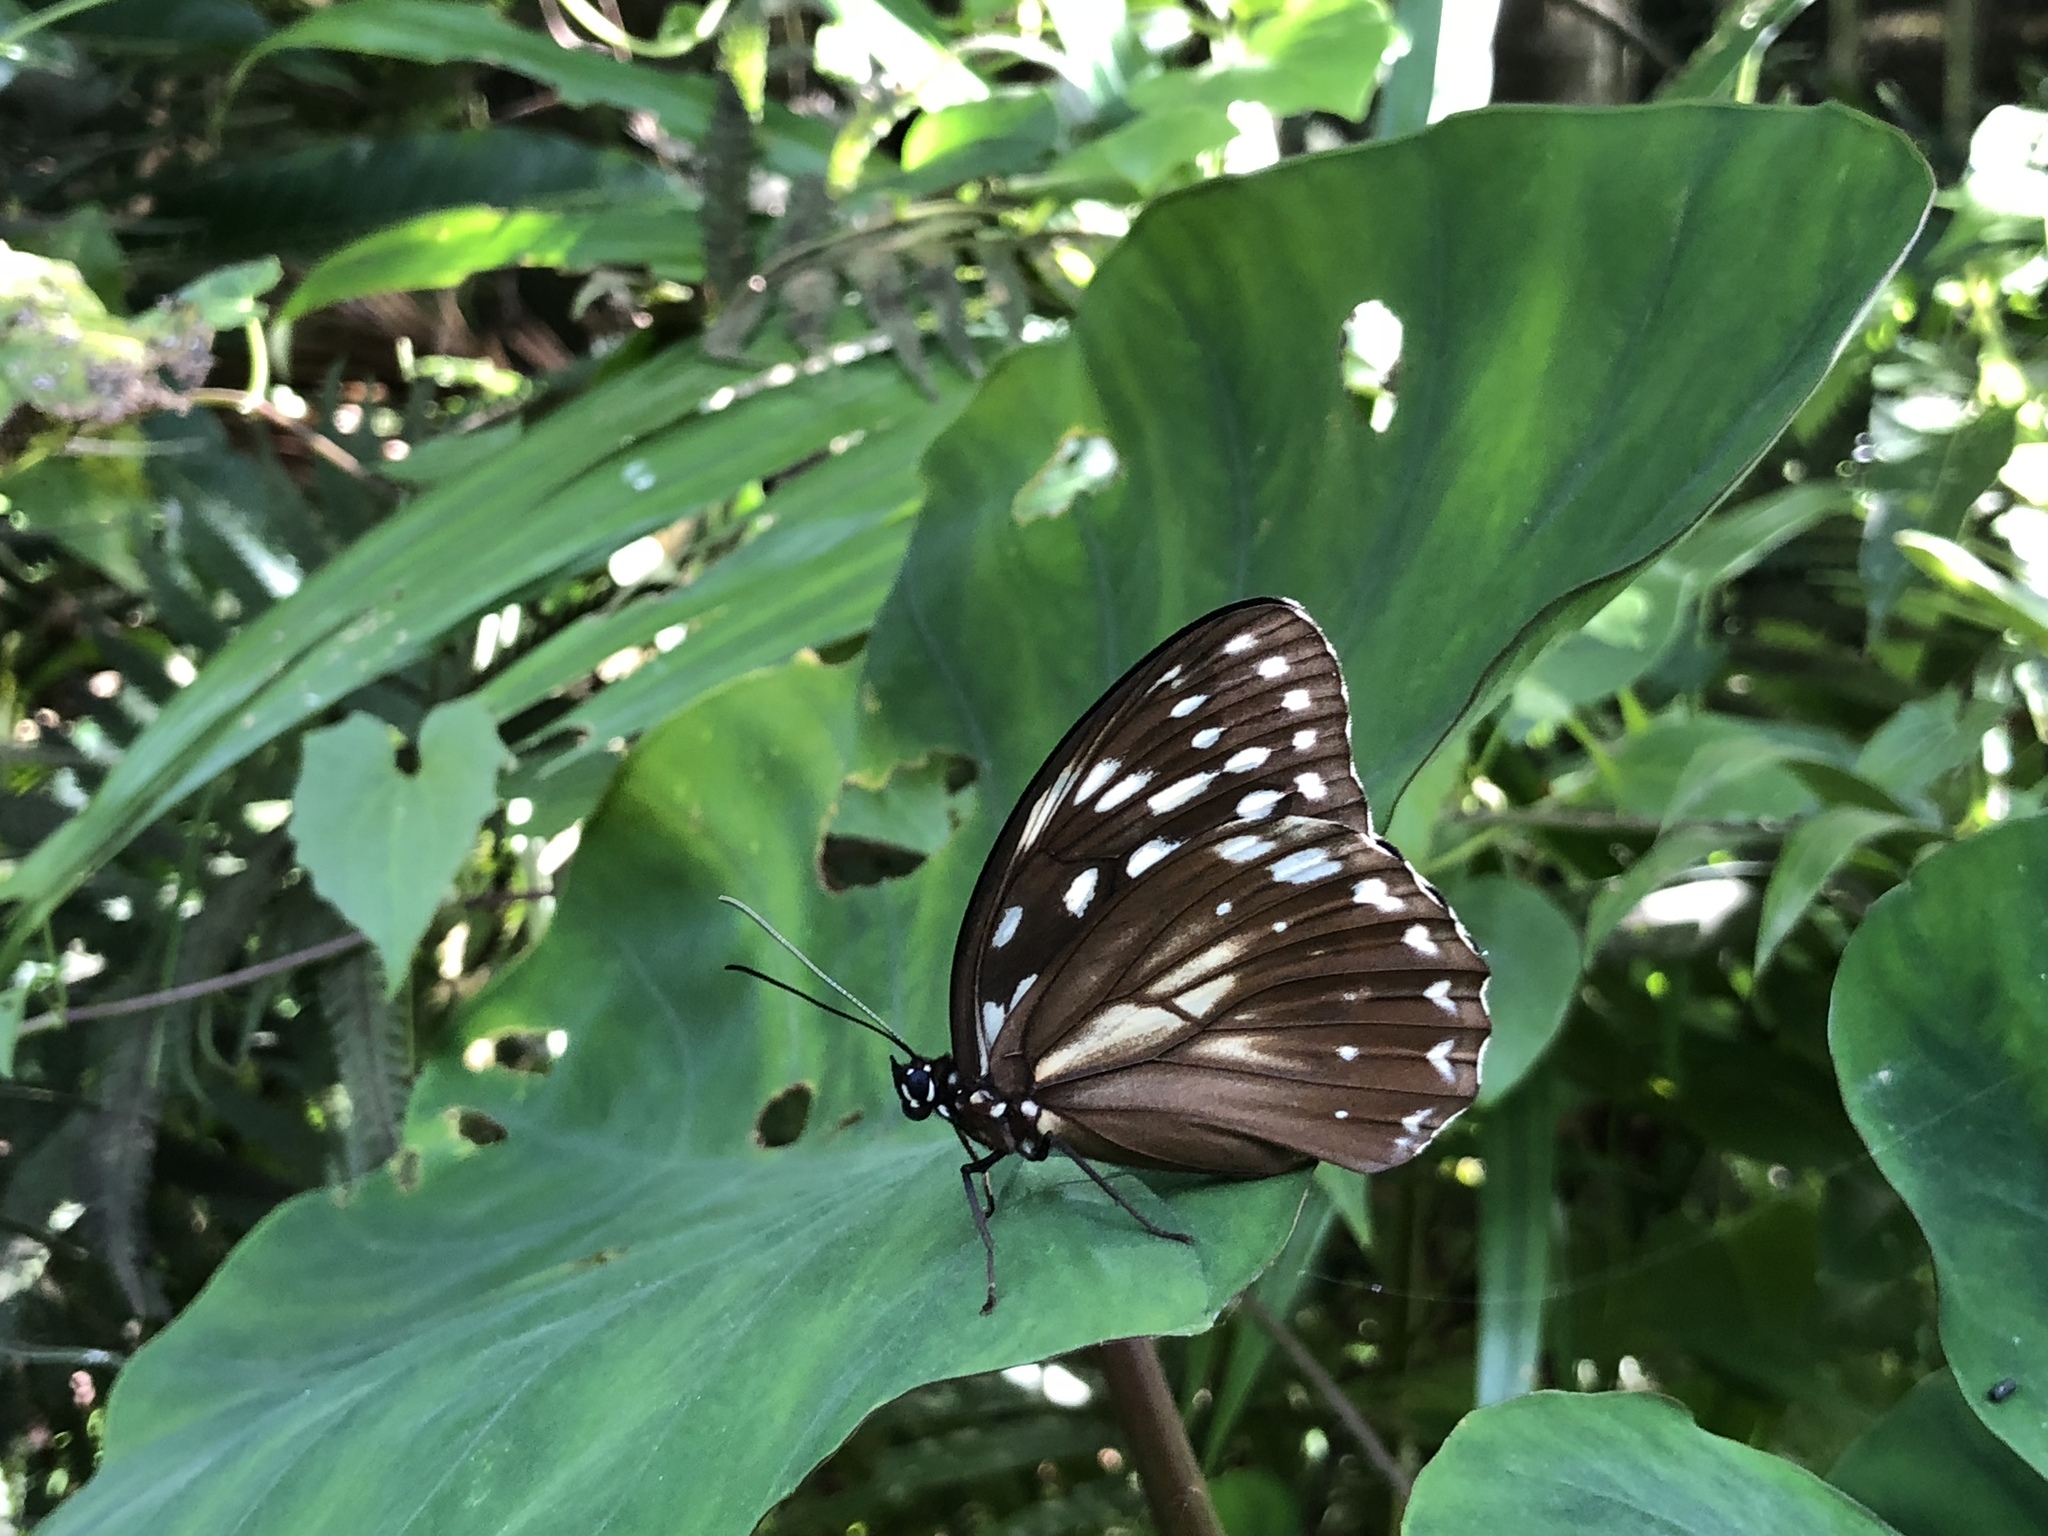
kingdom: Animalia
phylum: Arthropoda
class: Insecta
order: Lepidoptera
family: Nymphalidae
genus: Penthema
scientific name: Penthema formosanum
